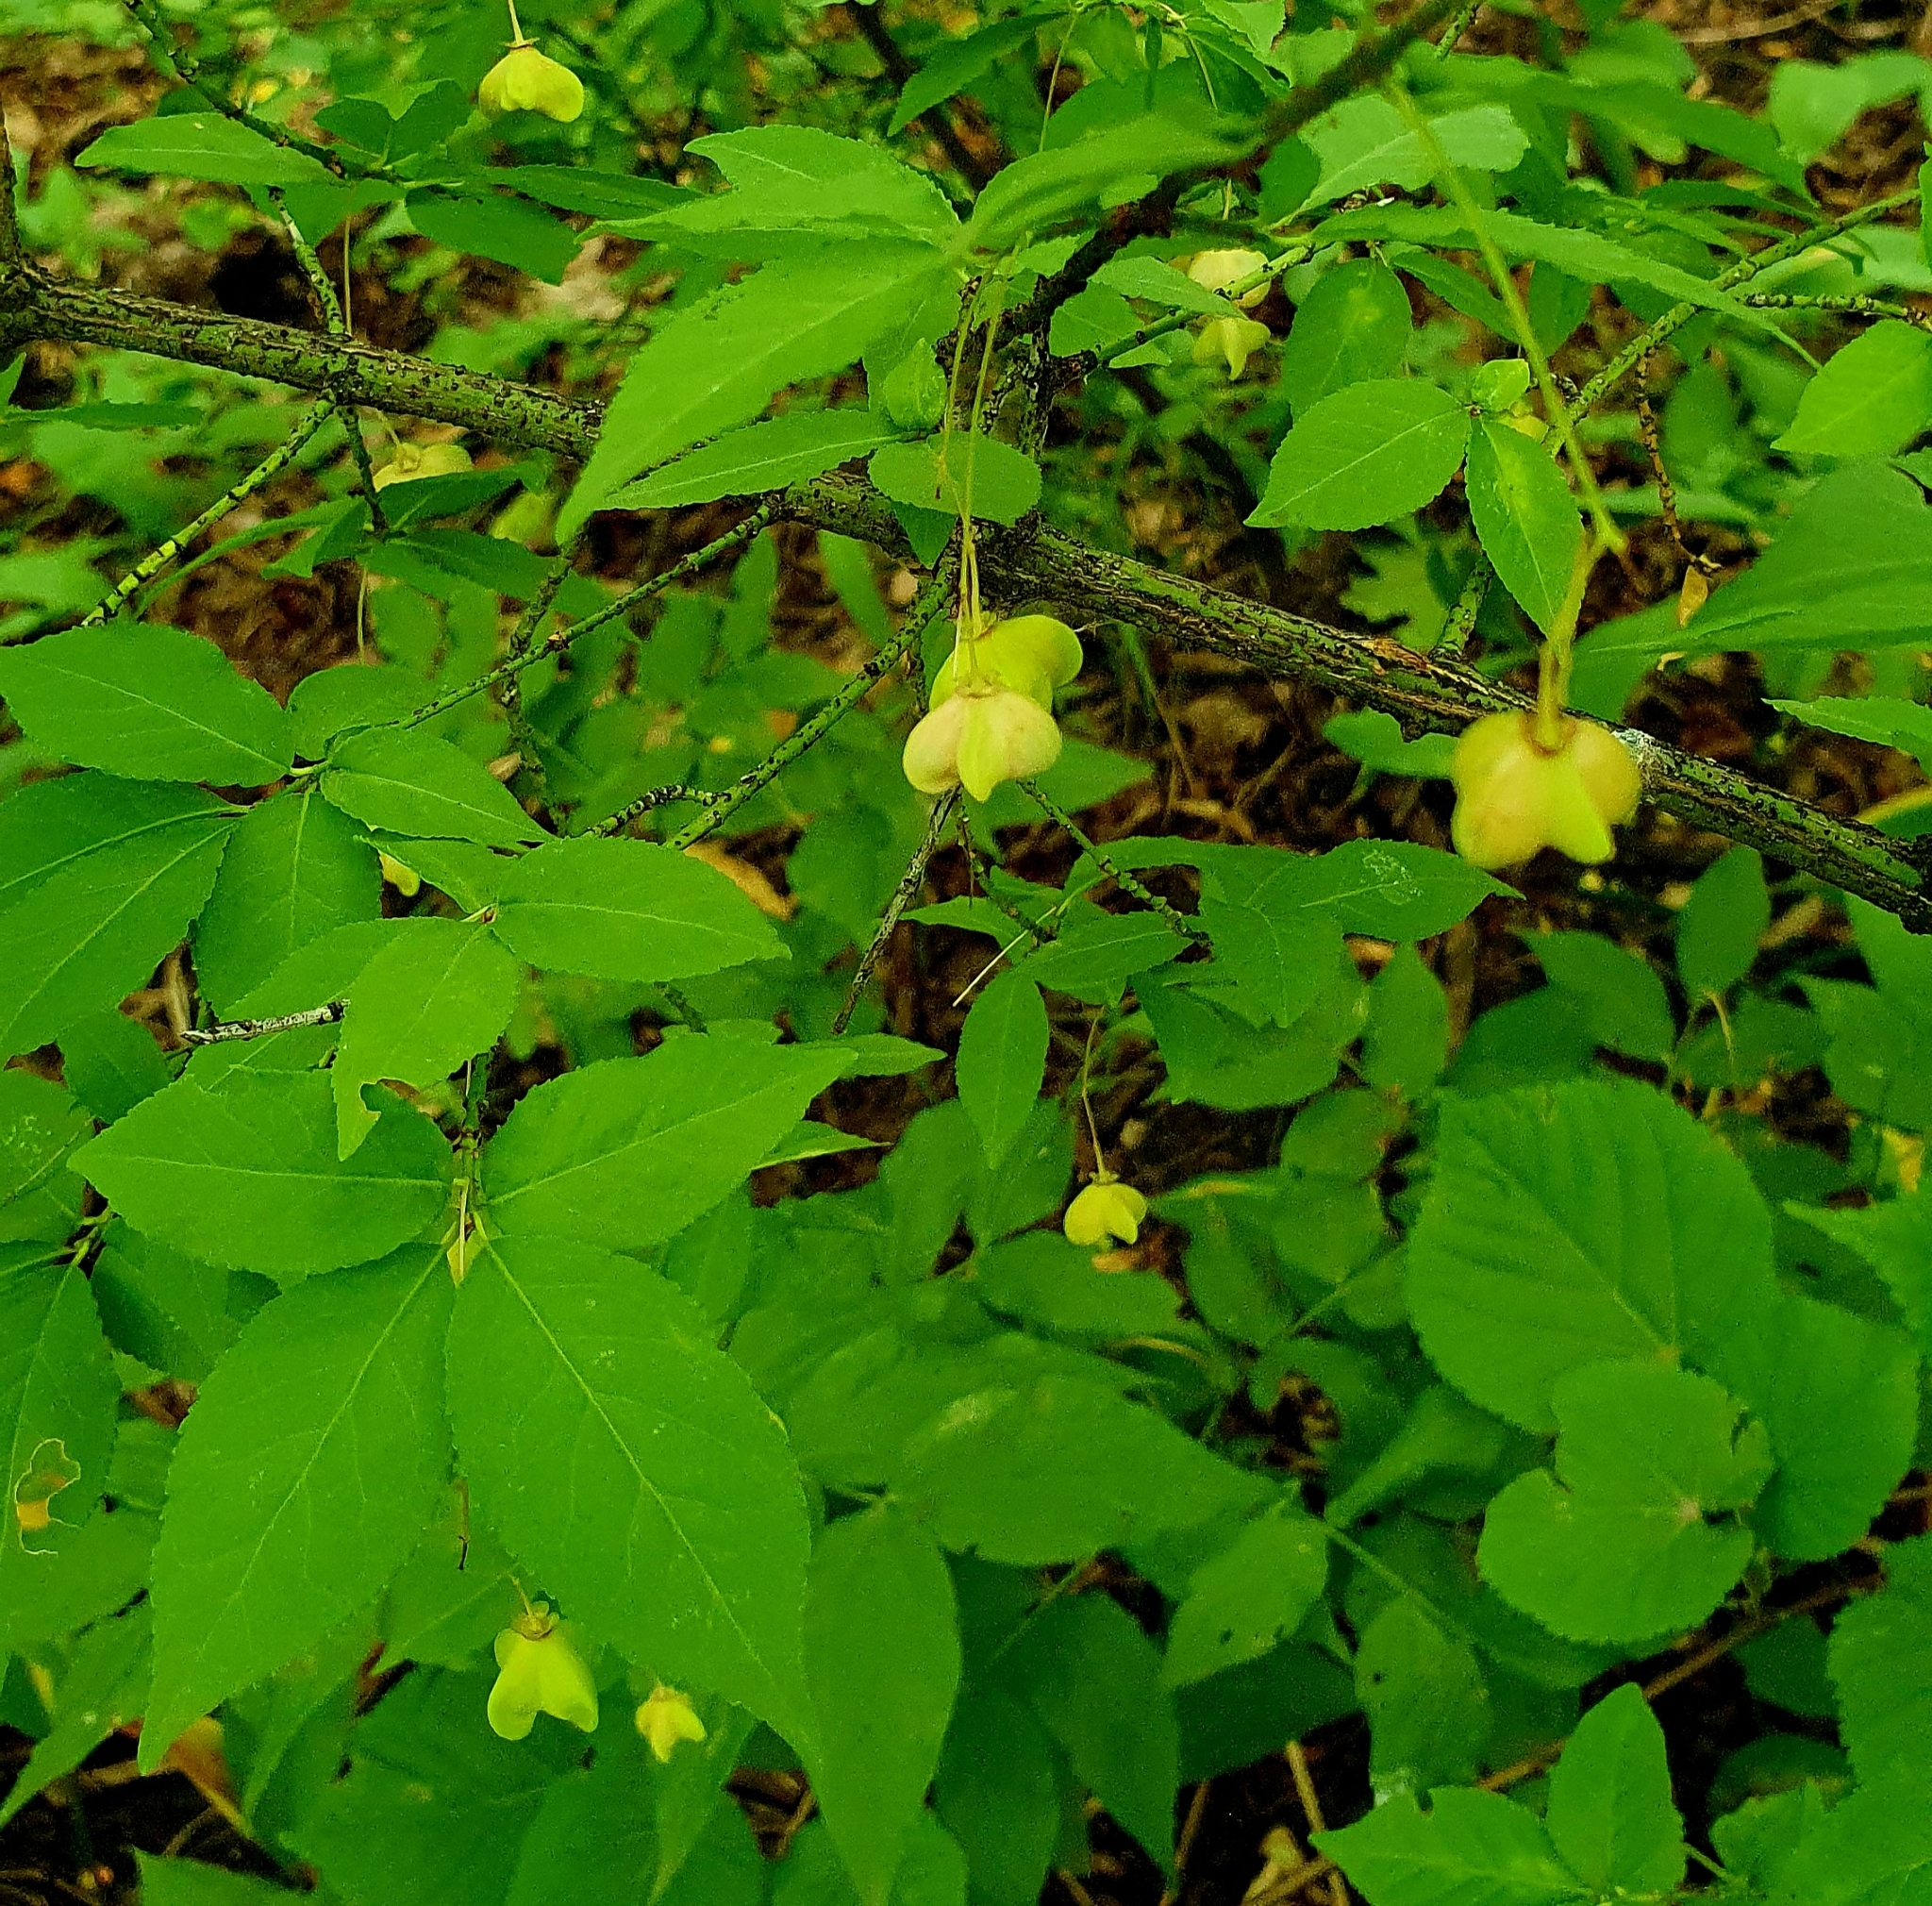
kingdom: Plantae
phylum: Tracheophyta
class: Magnoliopsida
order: Celastrales
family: Celastraceae
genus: Euonymus
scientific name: Euonymus verrucosus
